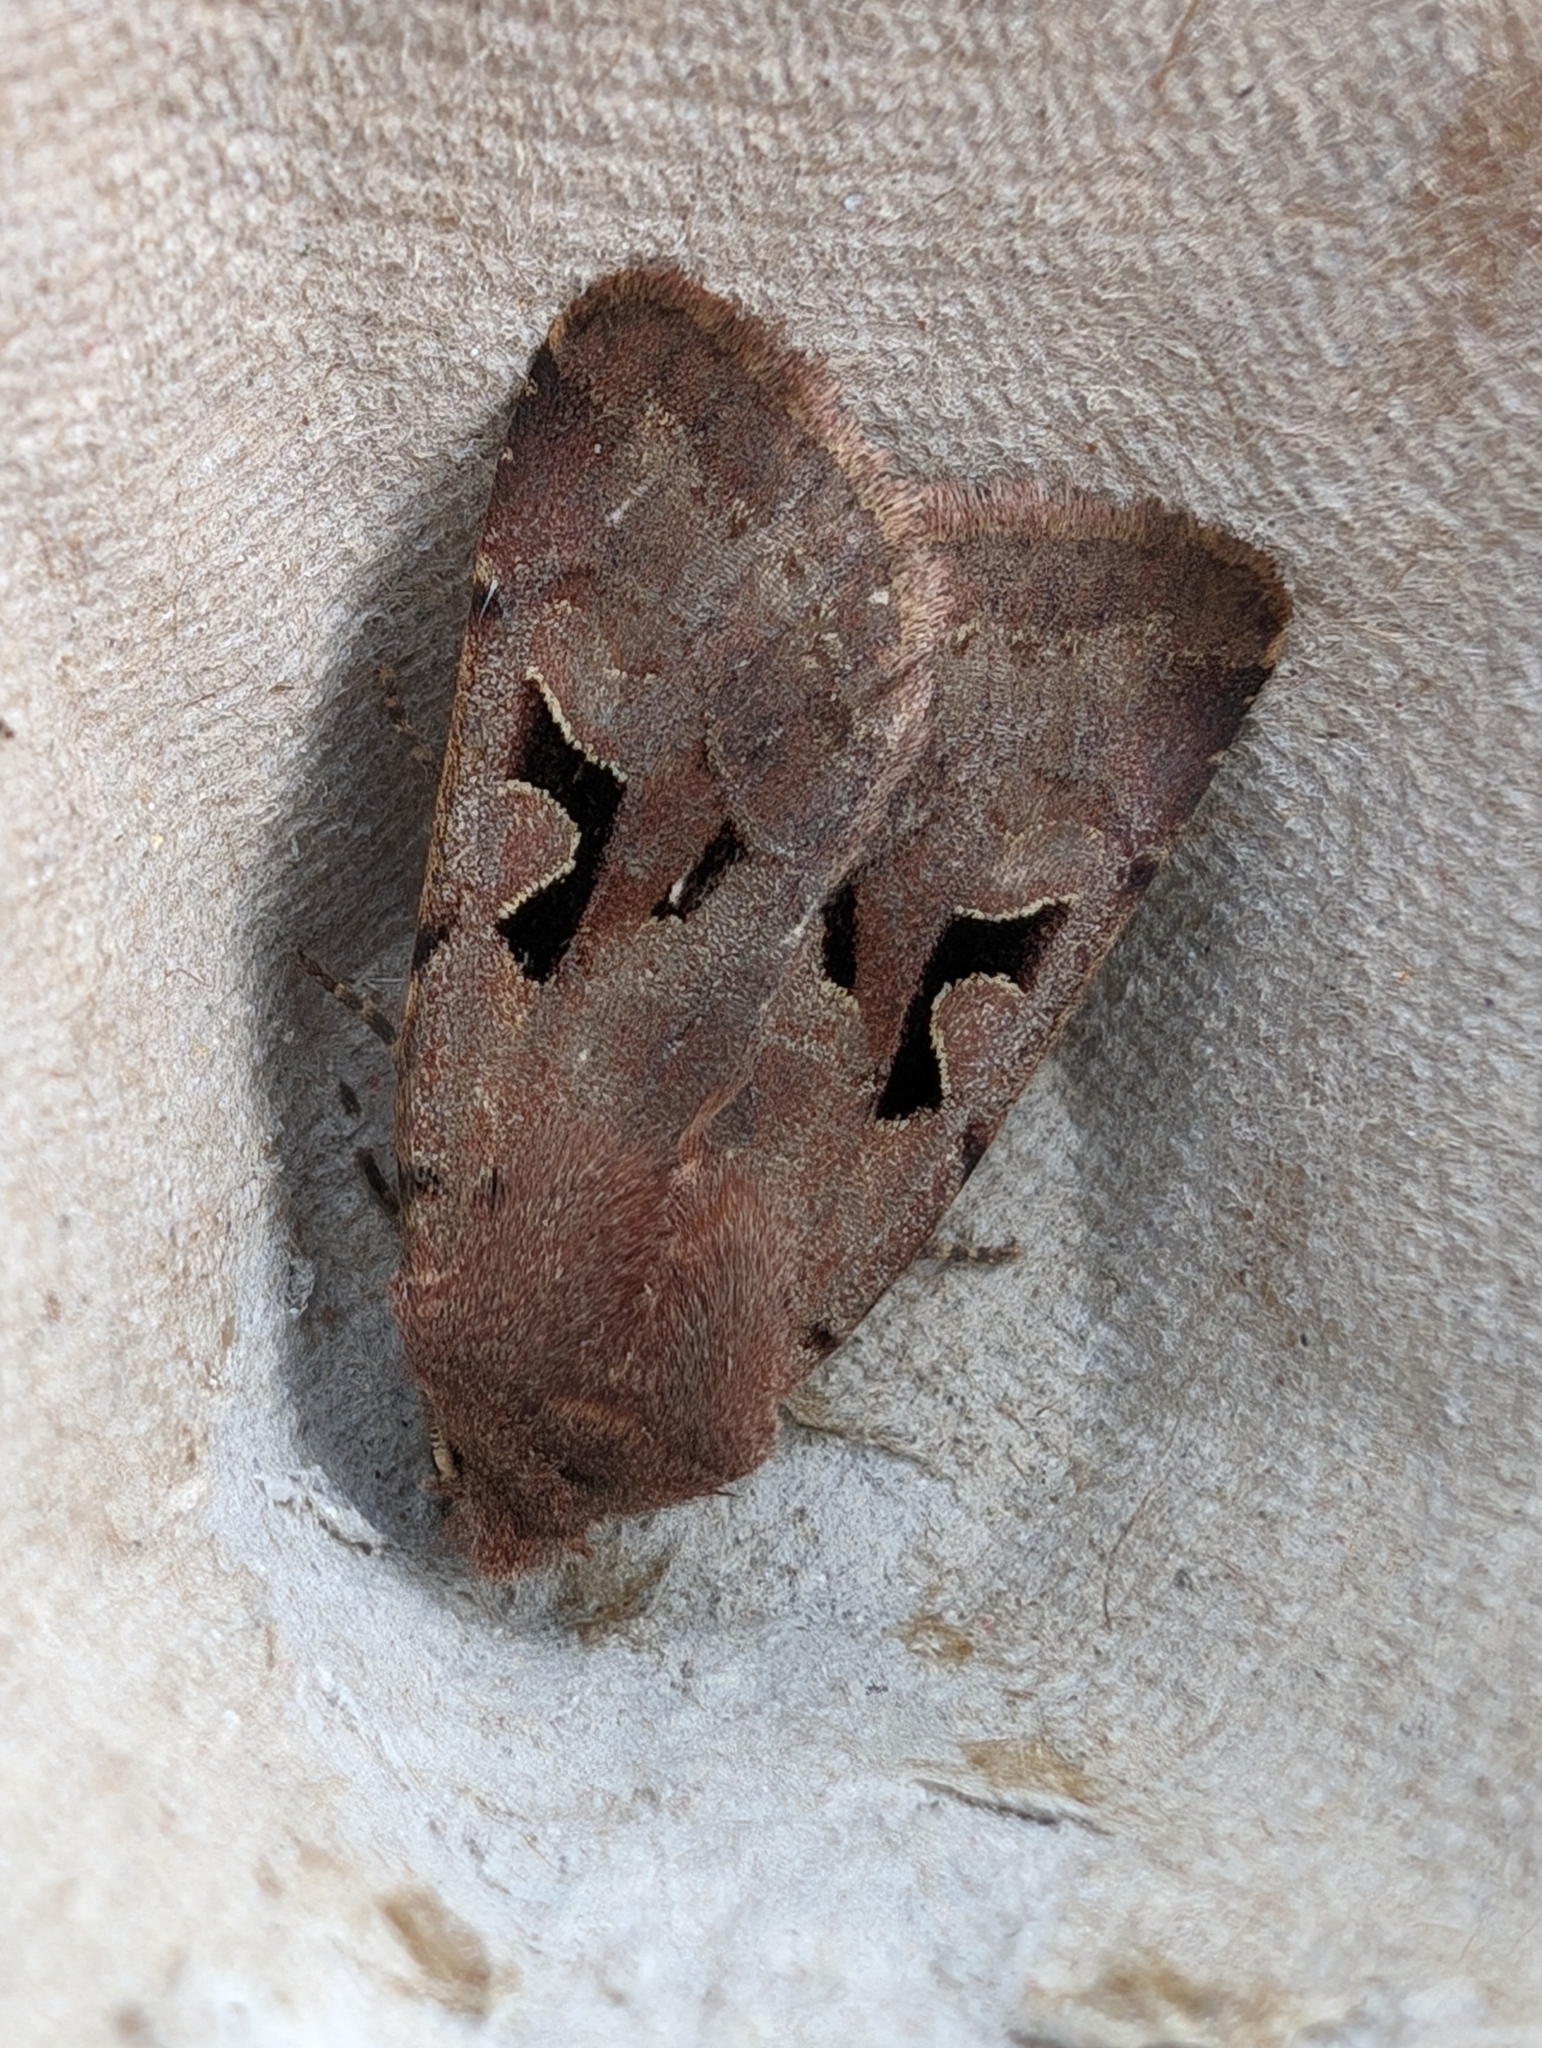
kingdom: Animalia
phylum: Arthropoda
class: Insecta
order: Lepidoptera
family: Noctuidae
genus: Orthosia
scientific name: Orthosia gothica
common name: Hebrew character
